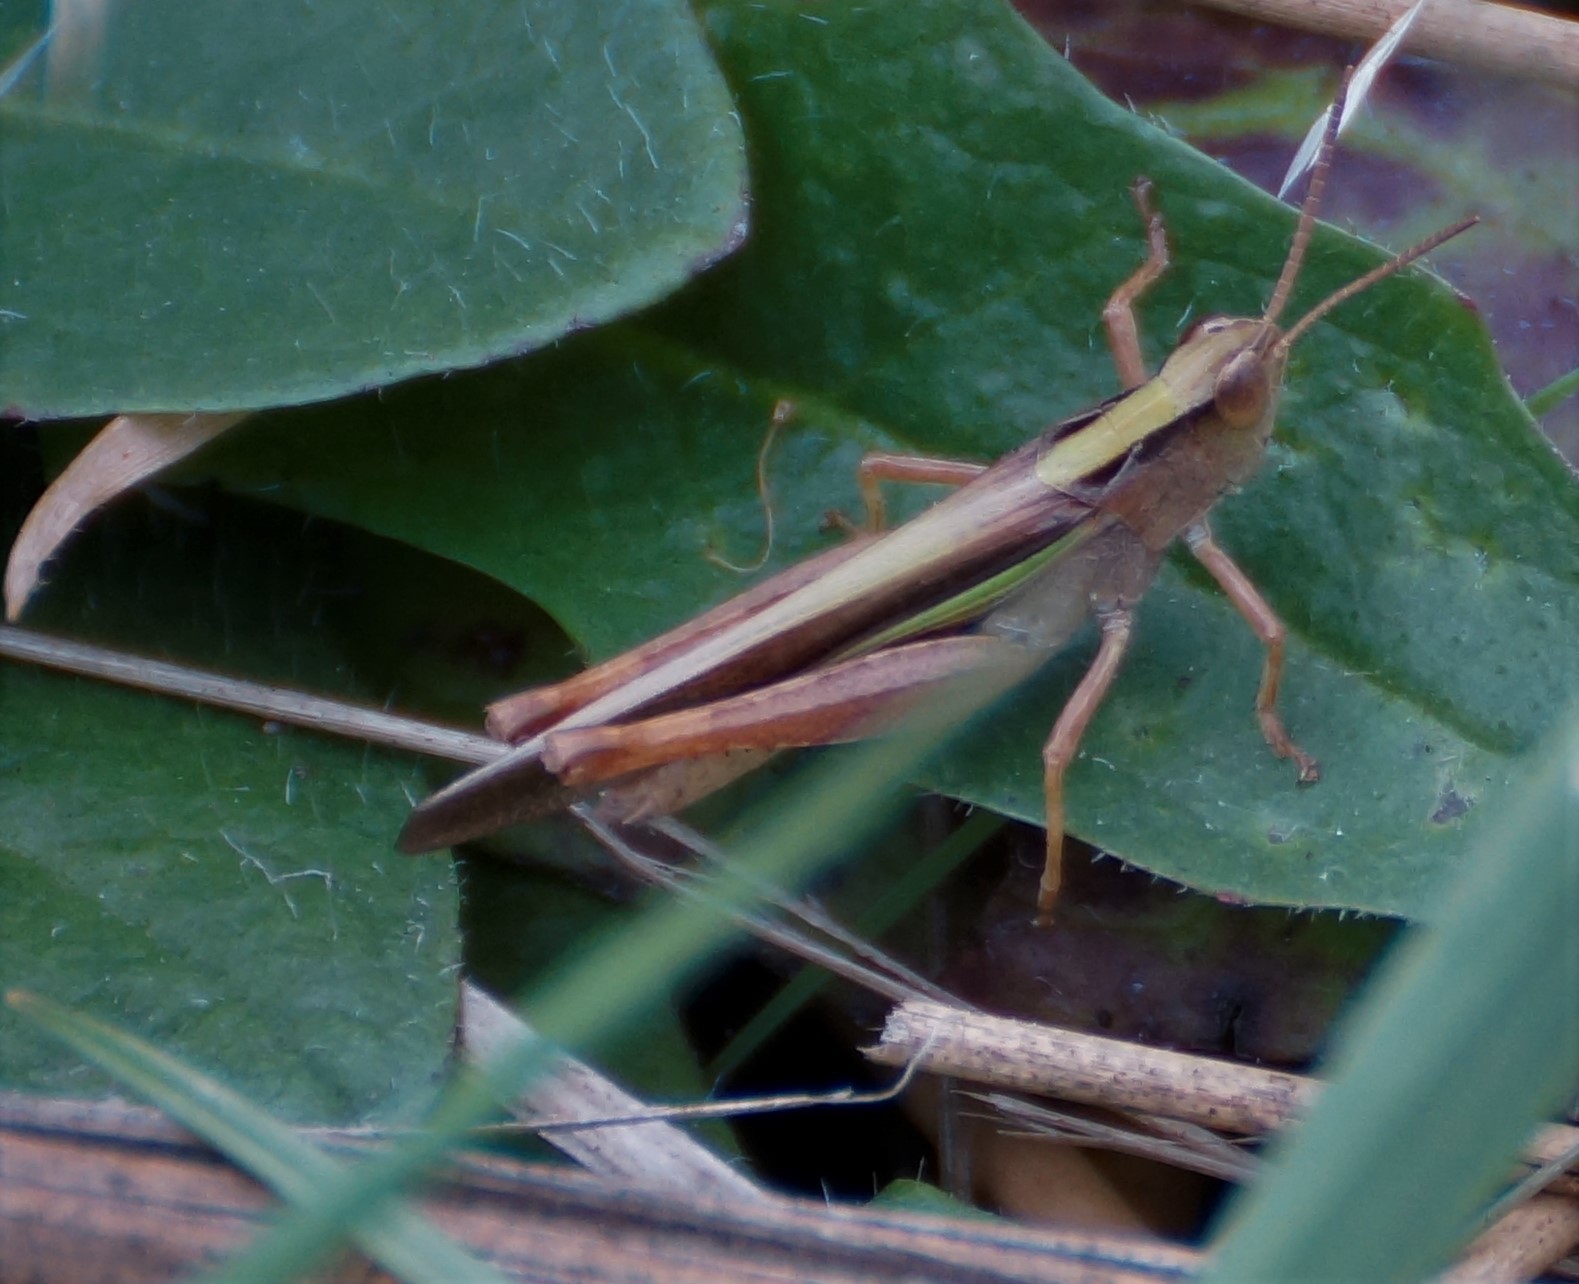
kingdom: Animalia
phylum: Arthropoda
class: Insecta
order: Orthoptera
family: Acrididae
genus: Schizobothrus
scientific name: Schizobothrus flavovittatus
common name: Disappearing grasshopper
